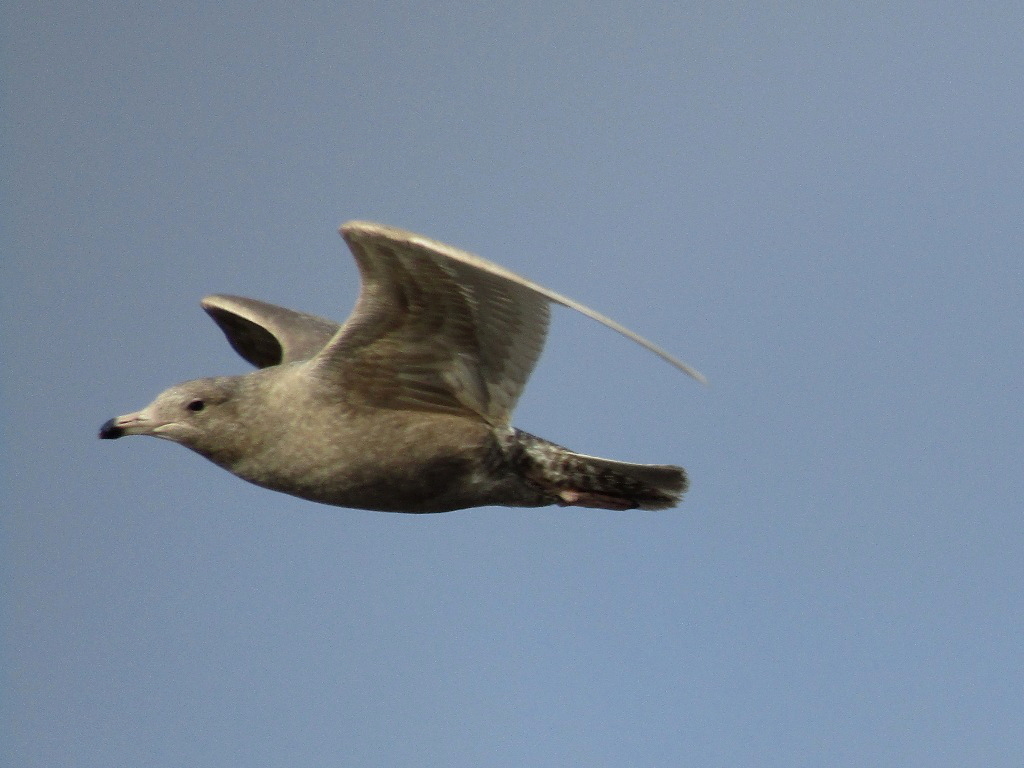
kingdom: Animalia
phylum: Chordata
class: Aves
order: Charadriiformes
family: Laridae
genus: Larus
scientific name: Larus hyperboreus
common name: Glaucous gull
